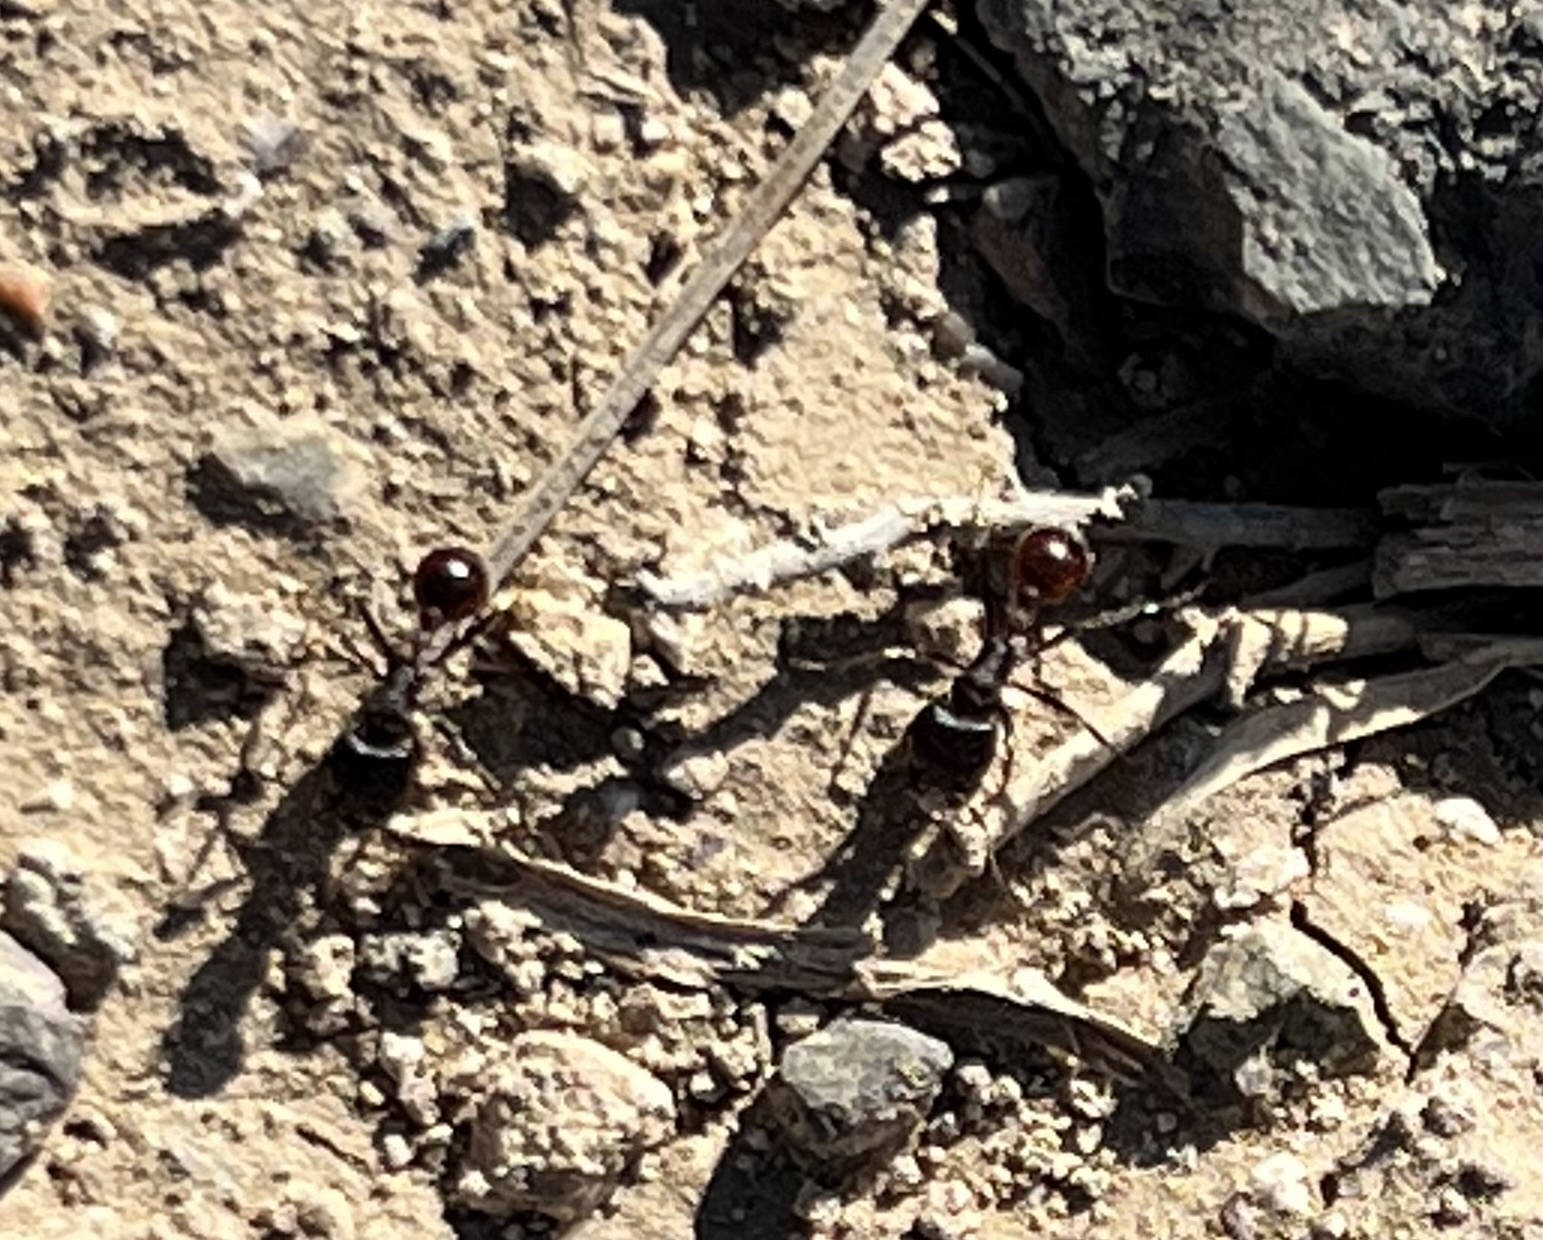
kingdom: Animalia
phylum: Arthropoda
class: Insecta
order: Hymenoptera
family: Formicidae
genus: Pogonomyrmex
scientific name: Pogonomyrmex rugosus
